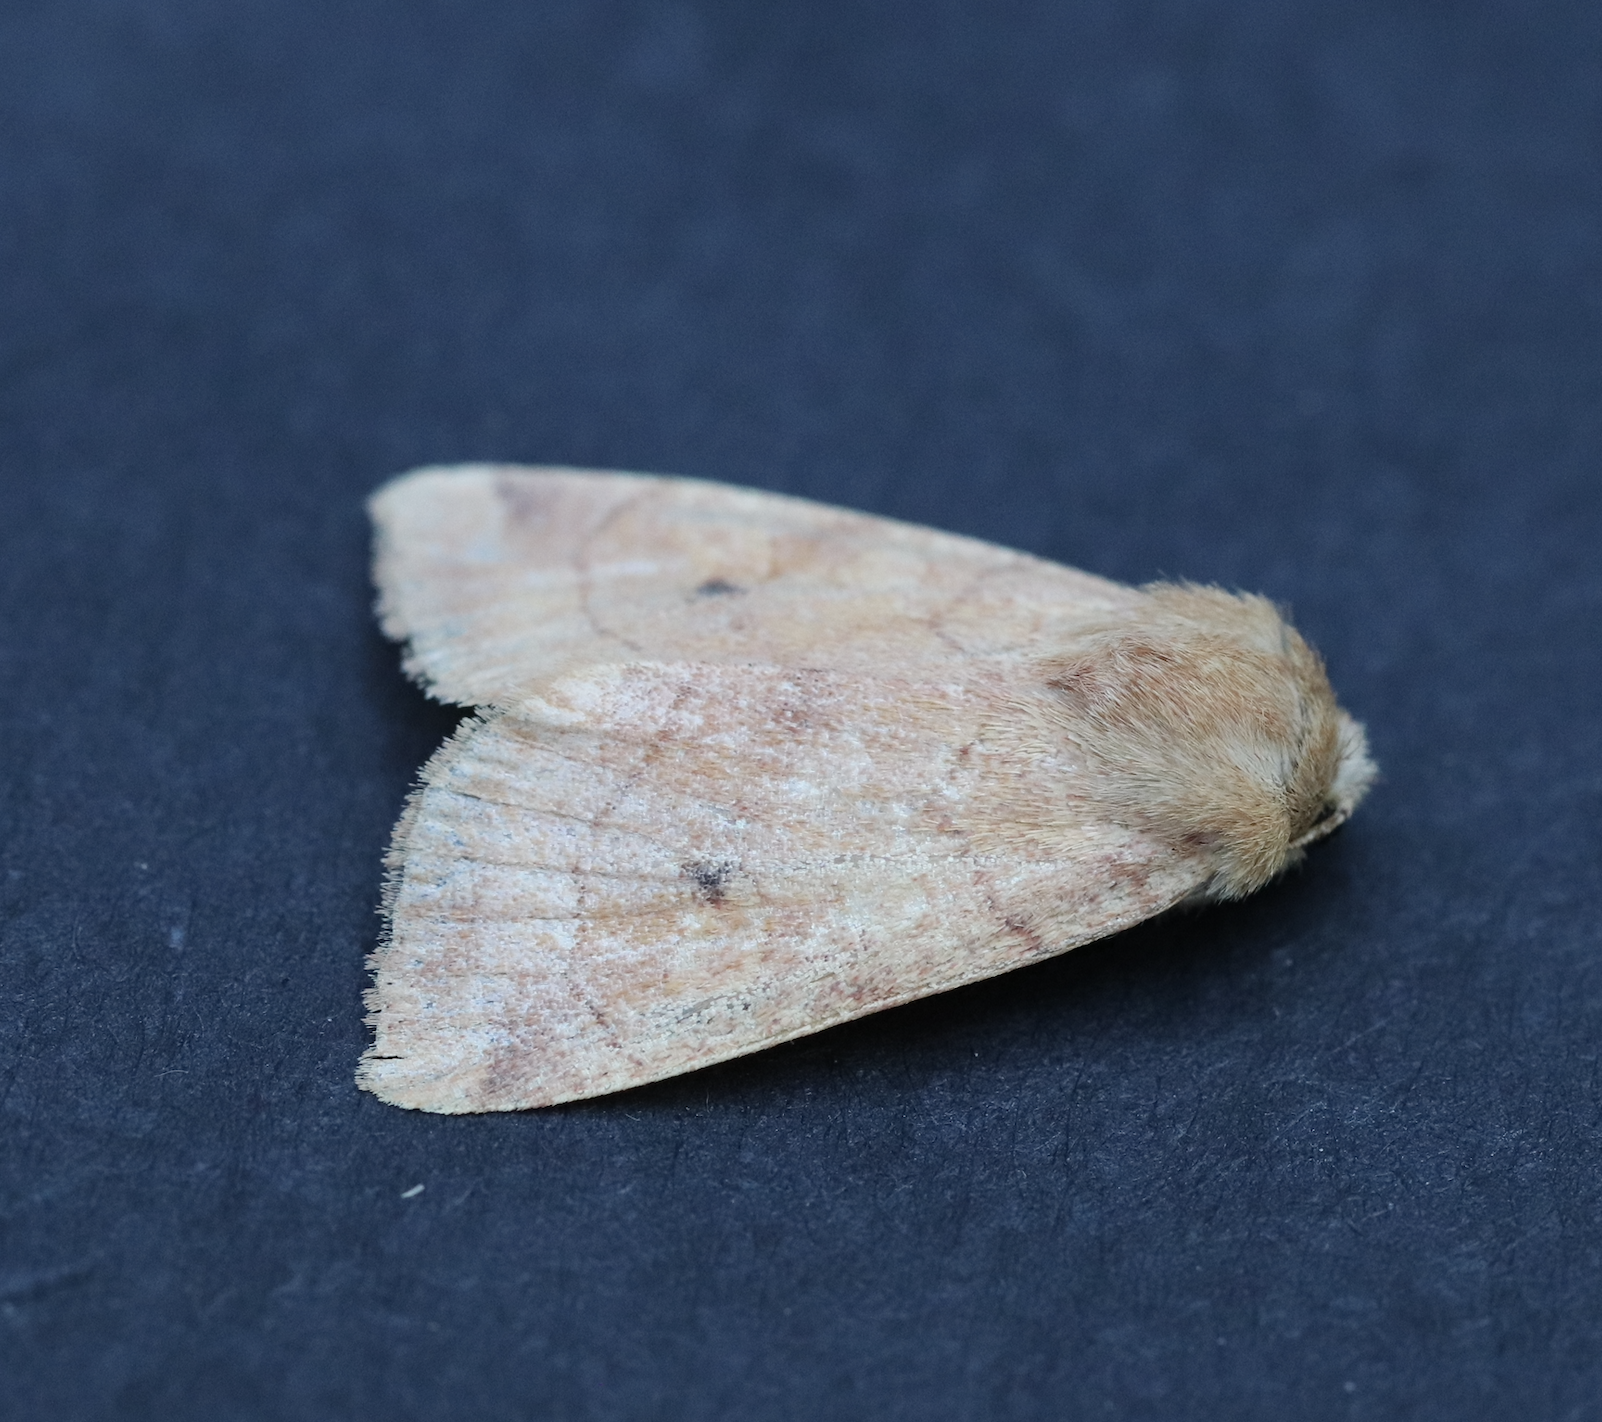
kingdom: Animalia
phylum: Arthropoda
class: Insecta
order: Lepidoptera
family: Noctuidae
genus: Enargia
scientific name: Enargia infumata
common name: Smoked sallow
